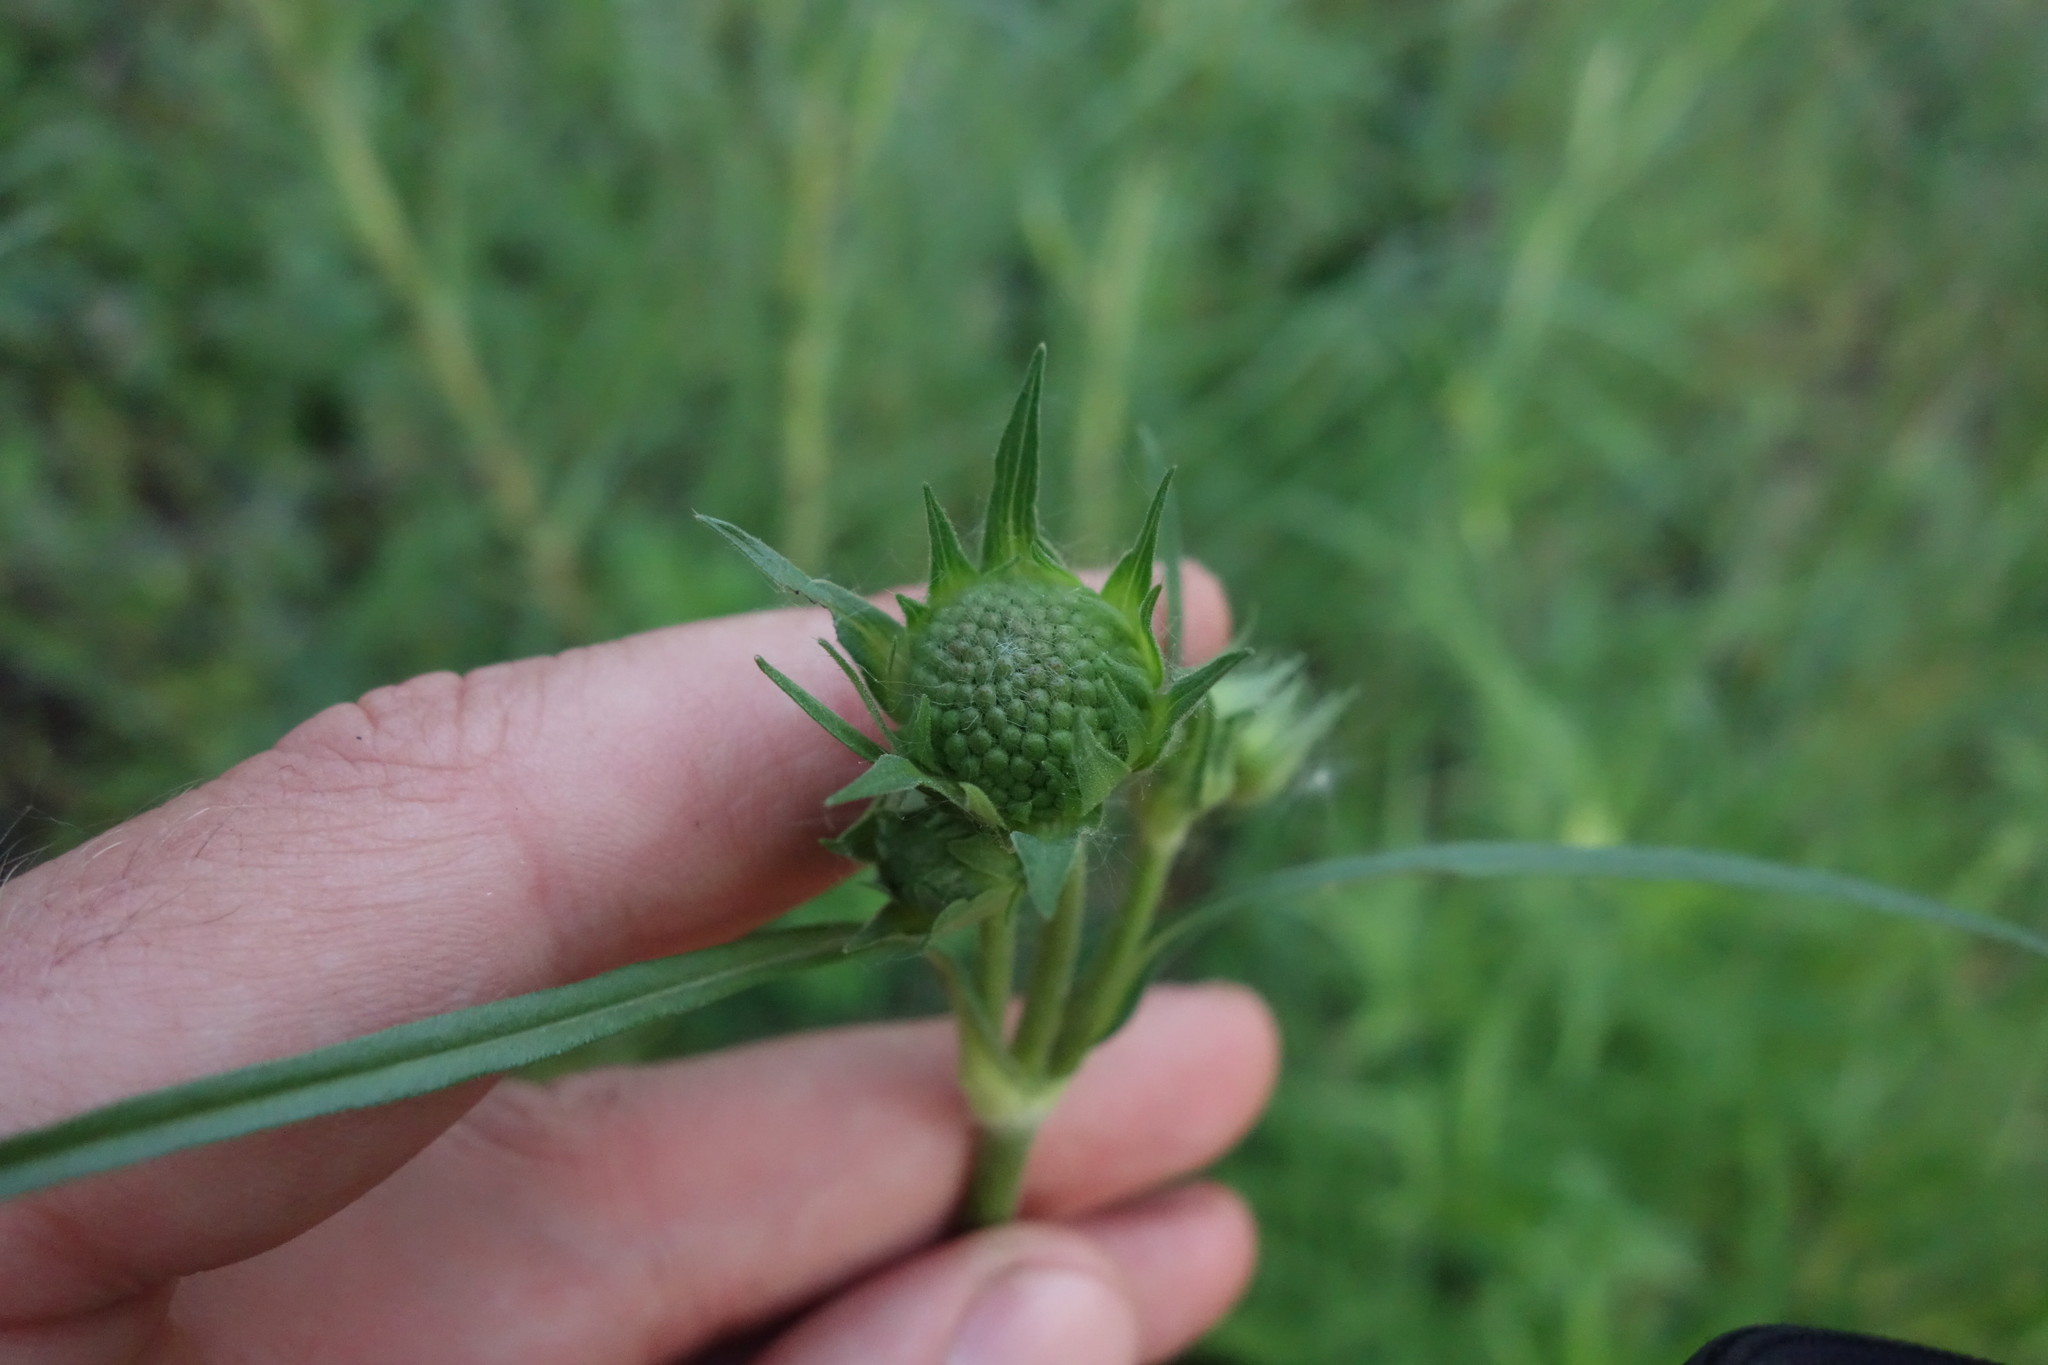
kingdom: Plantae
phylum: Tracheophyta
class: Magnoliopsida
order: Dipsacales
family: Caprifoliaceae
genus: Knautia
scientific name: Knautia arvensis
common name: Field scabiosa
